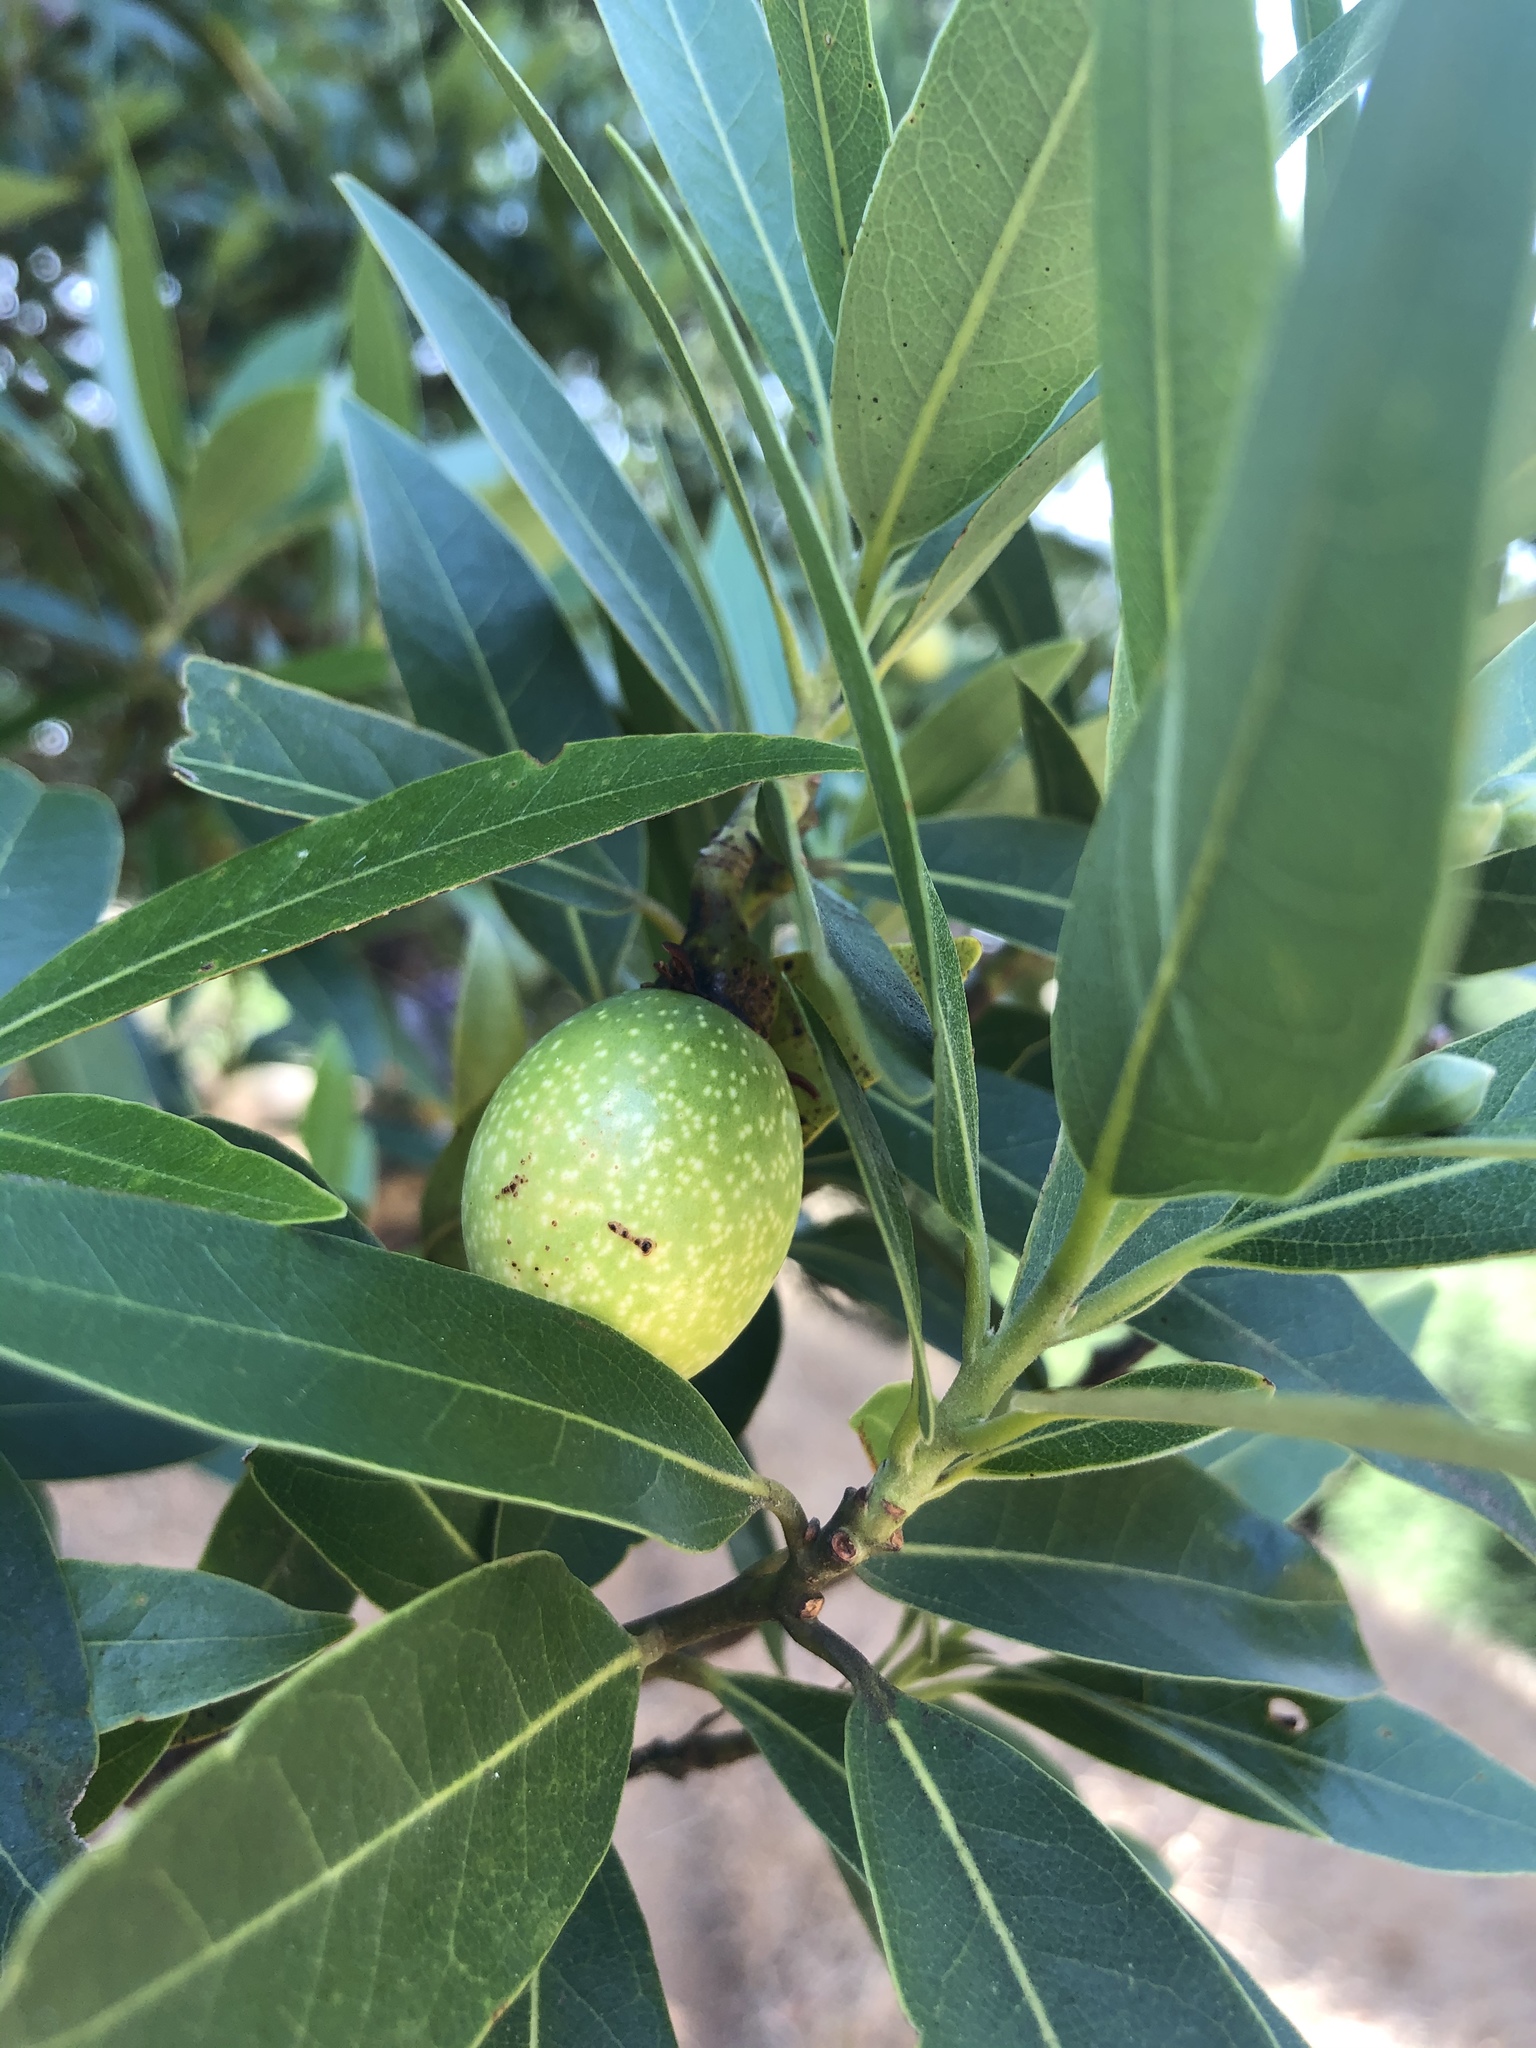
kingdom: Plantae
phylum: Tracheophyta
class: Magnoliopsida
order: Laurales
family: Lauraceae
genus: Umbellularia
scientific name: Umbellularia californica
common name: California bay
